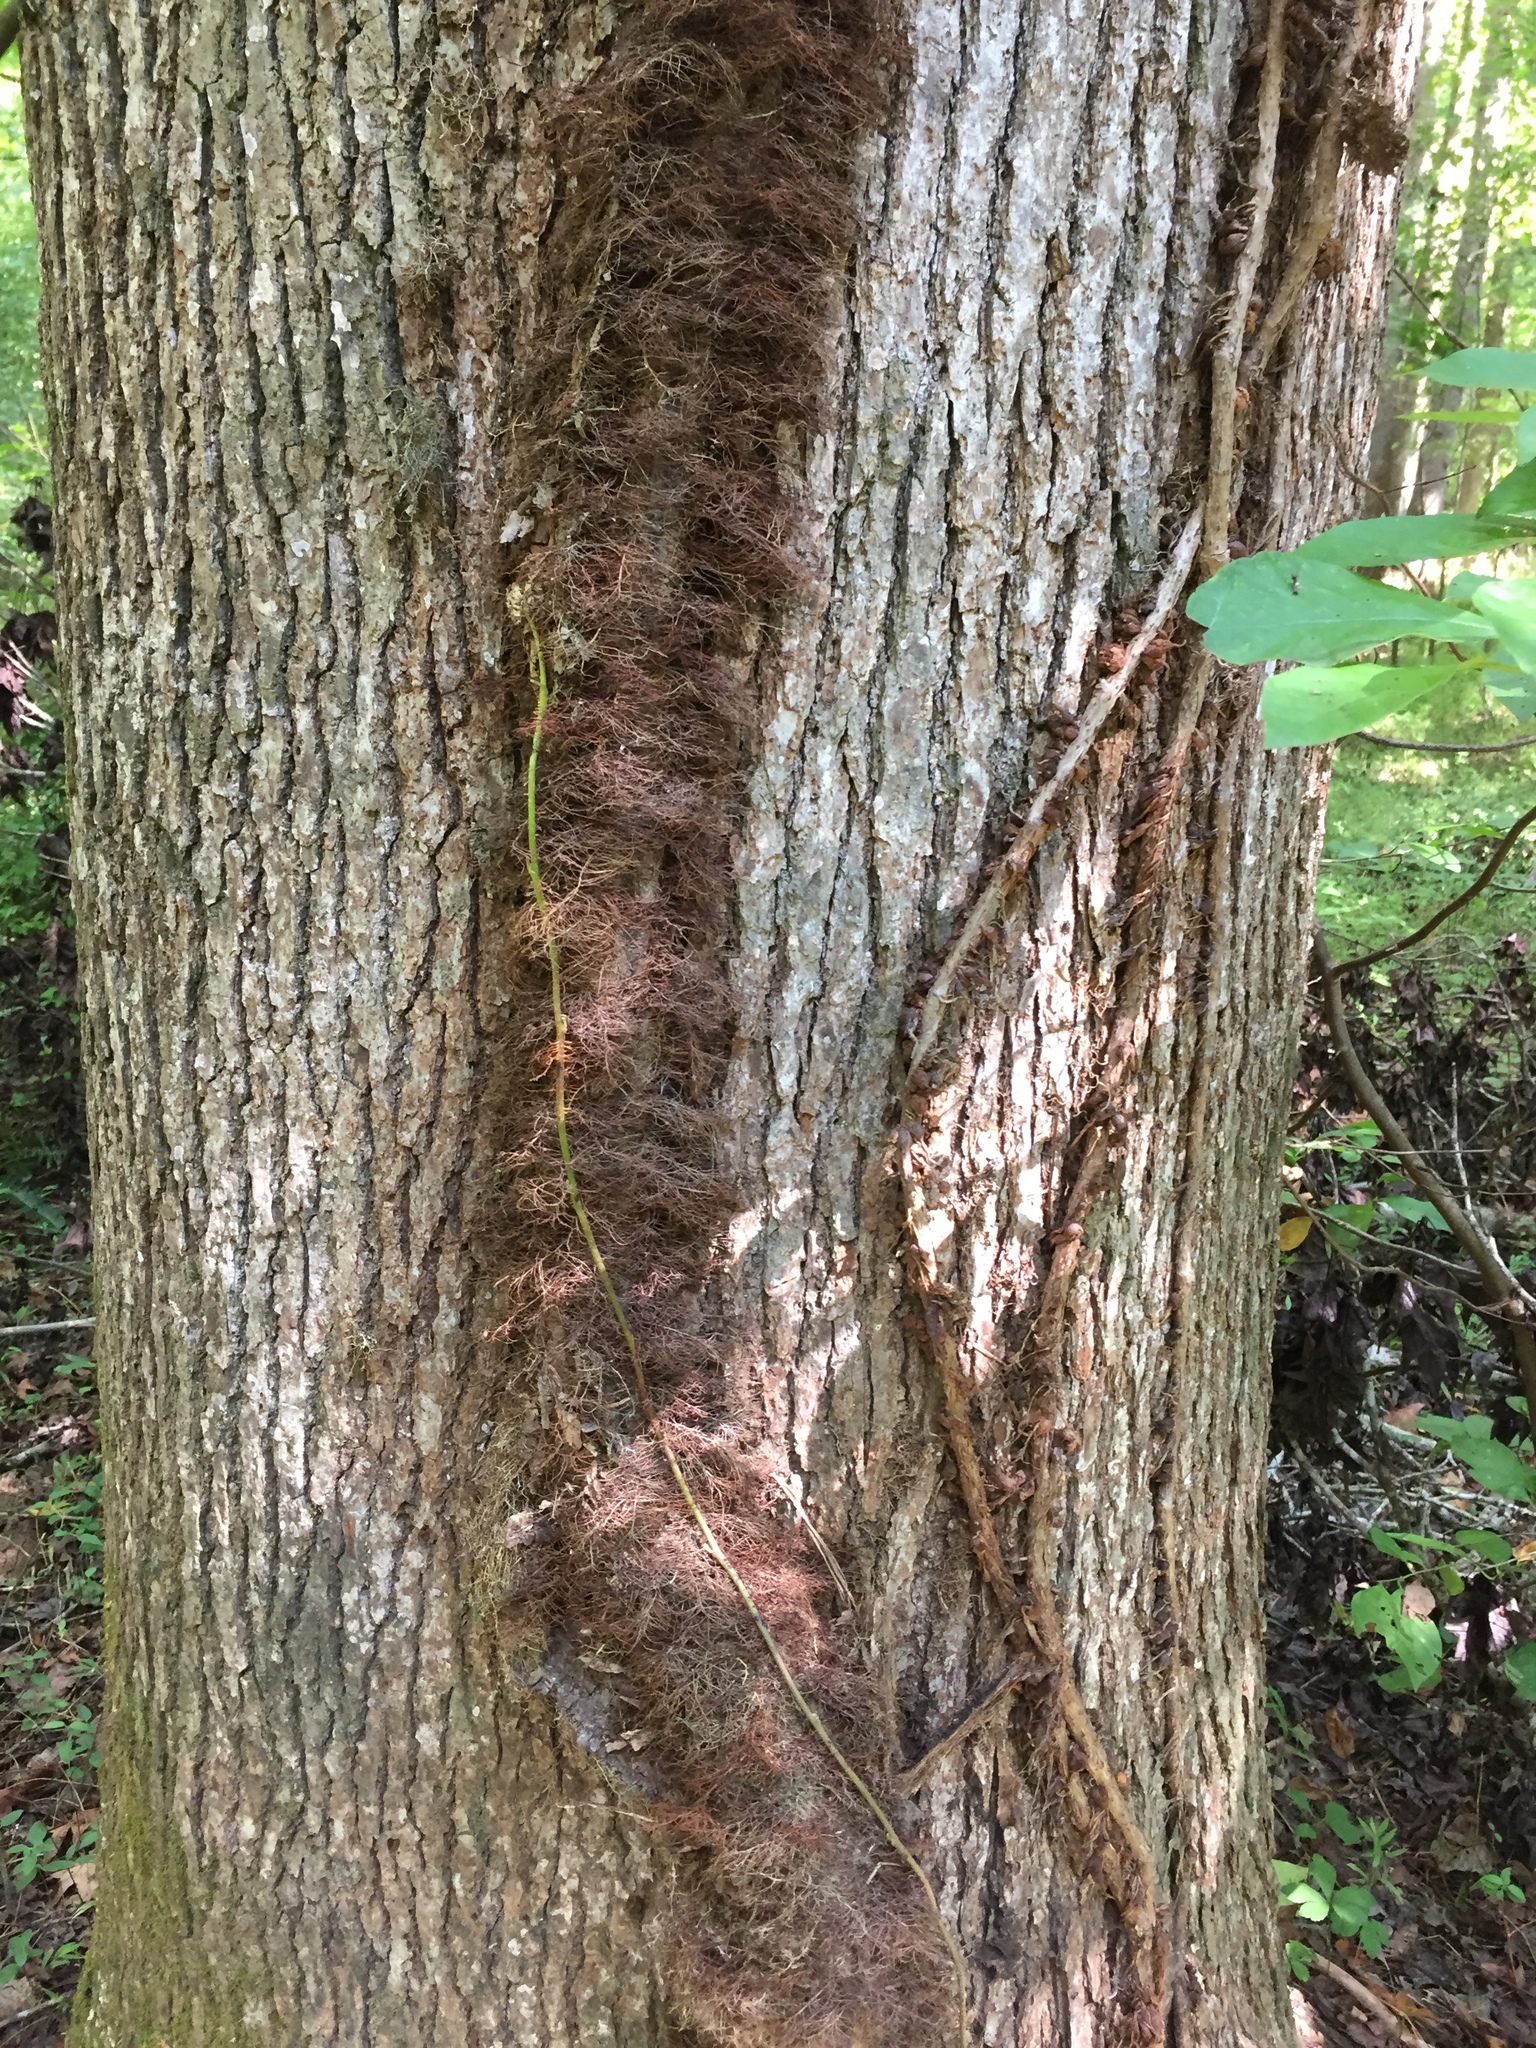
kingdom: Plantae
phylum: Tracheophyta
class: Magnoliopsida
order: Sapindales
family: Anacardiaceae
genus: Toxicodendron
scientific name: Toxicodendron radicans
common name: Poison ivy
